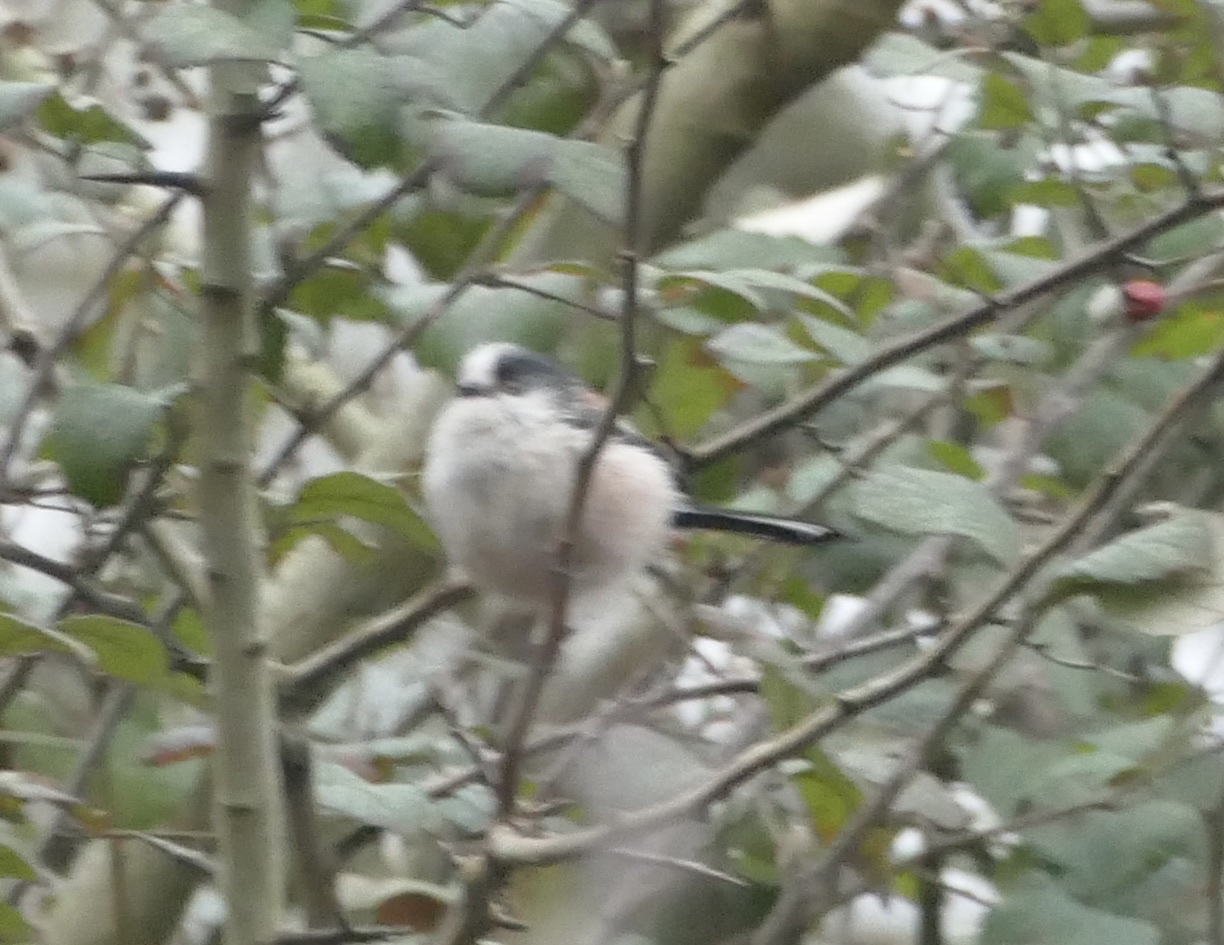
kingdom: Animalia
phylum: Chordata
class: Aves
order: Passeriformes
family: Aegithalidae
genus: Aegithalos
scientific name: Aegithalos caudatus
